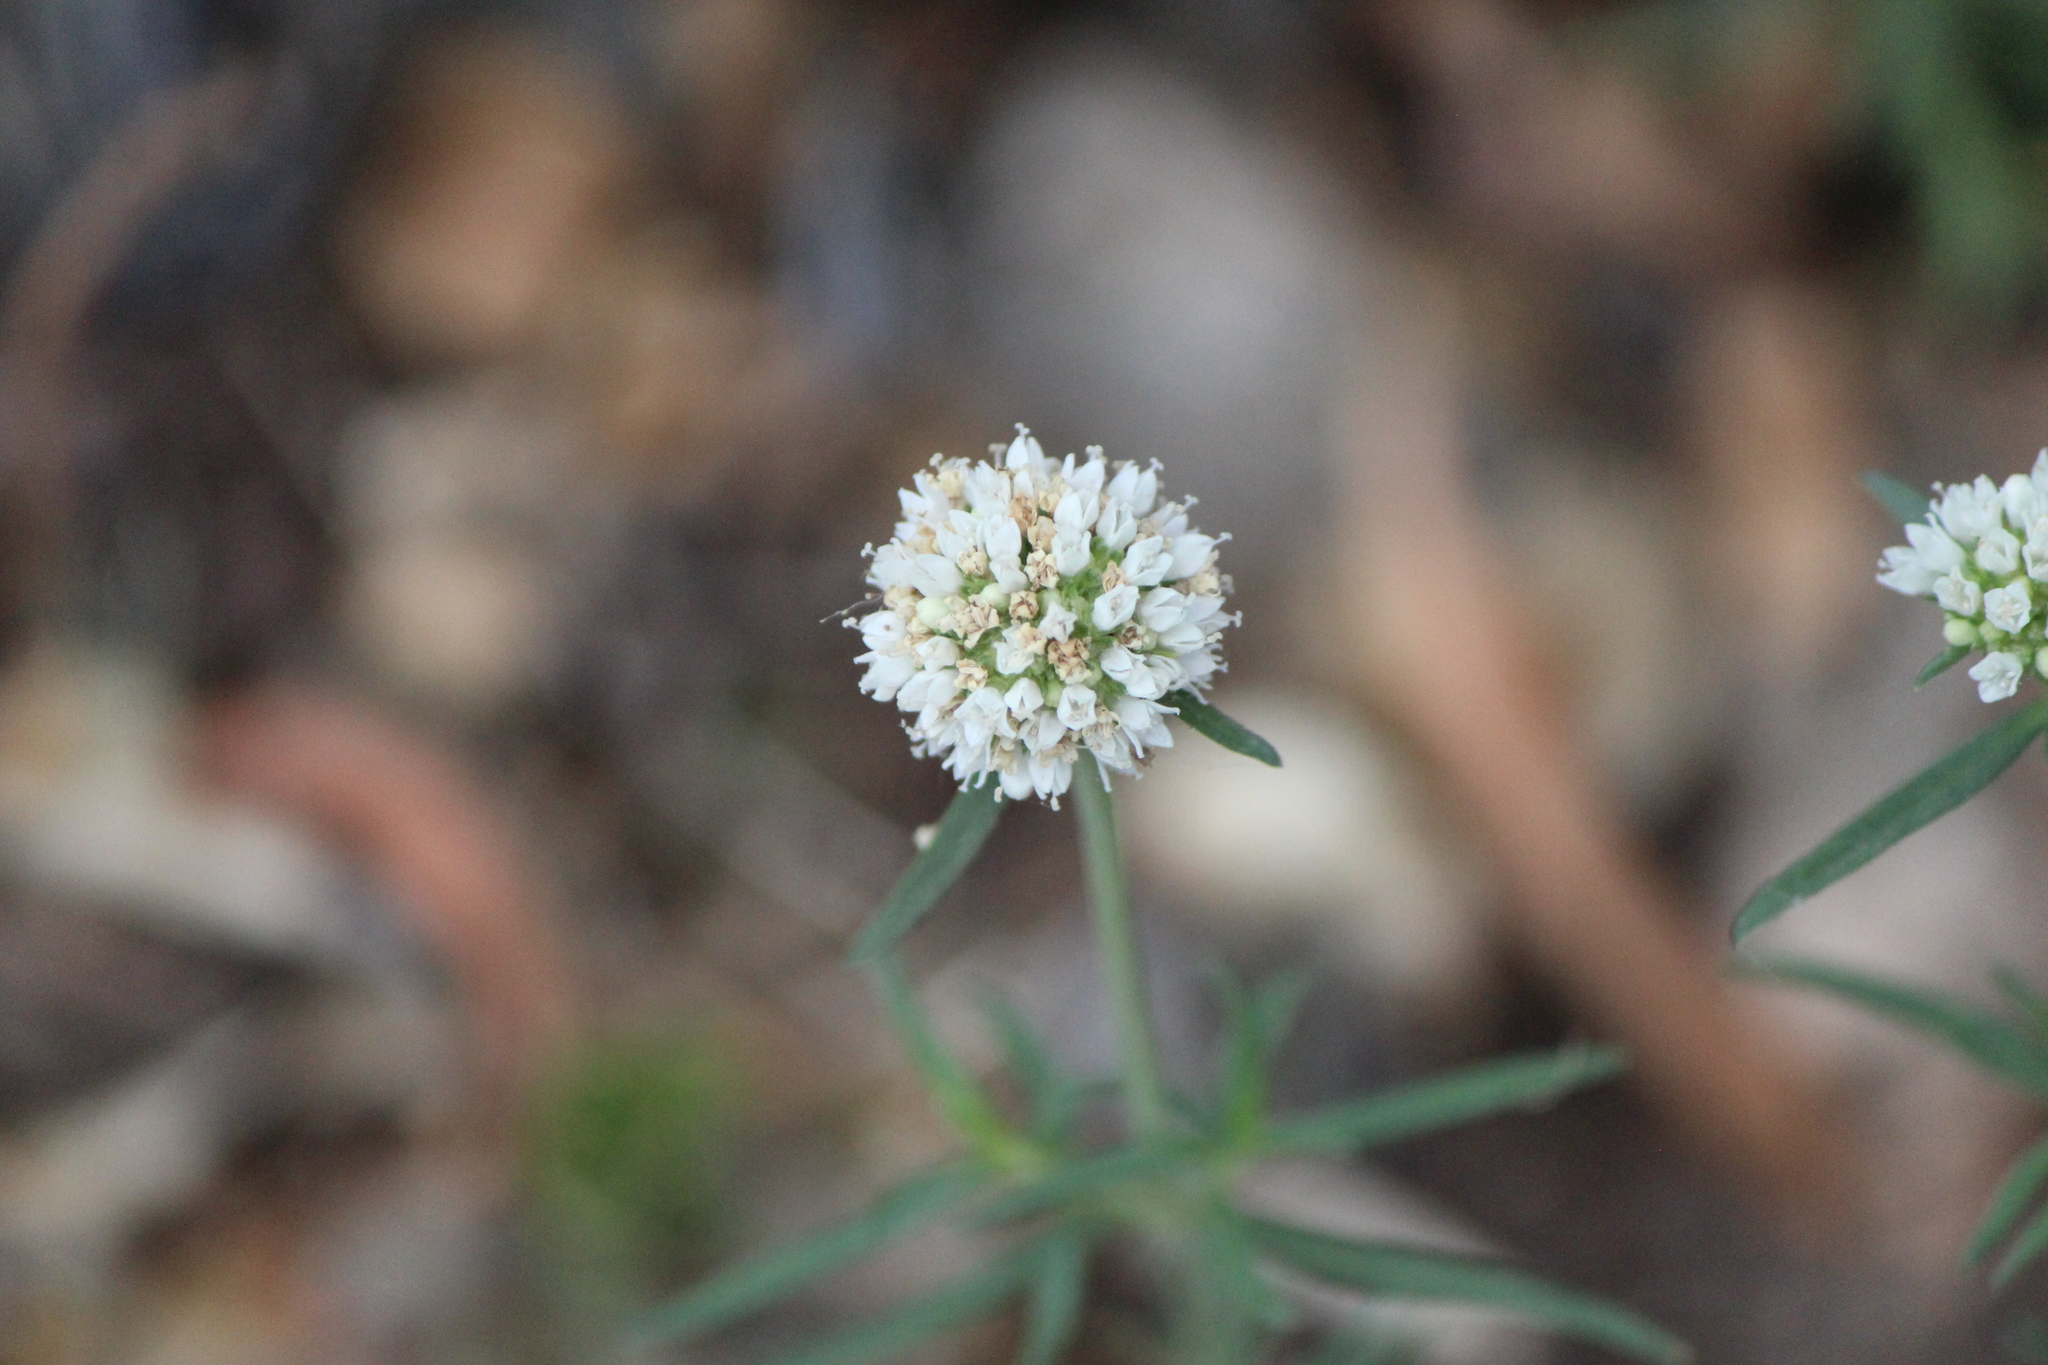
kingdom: Plantae
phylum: Tracheophyta
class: Magnoliopsida
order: Gentianales
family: Rubiaceae
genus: Spermacoce
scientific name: Spermacoce tenuior
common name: River false buttonweed
